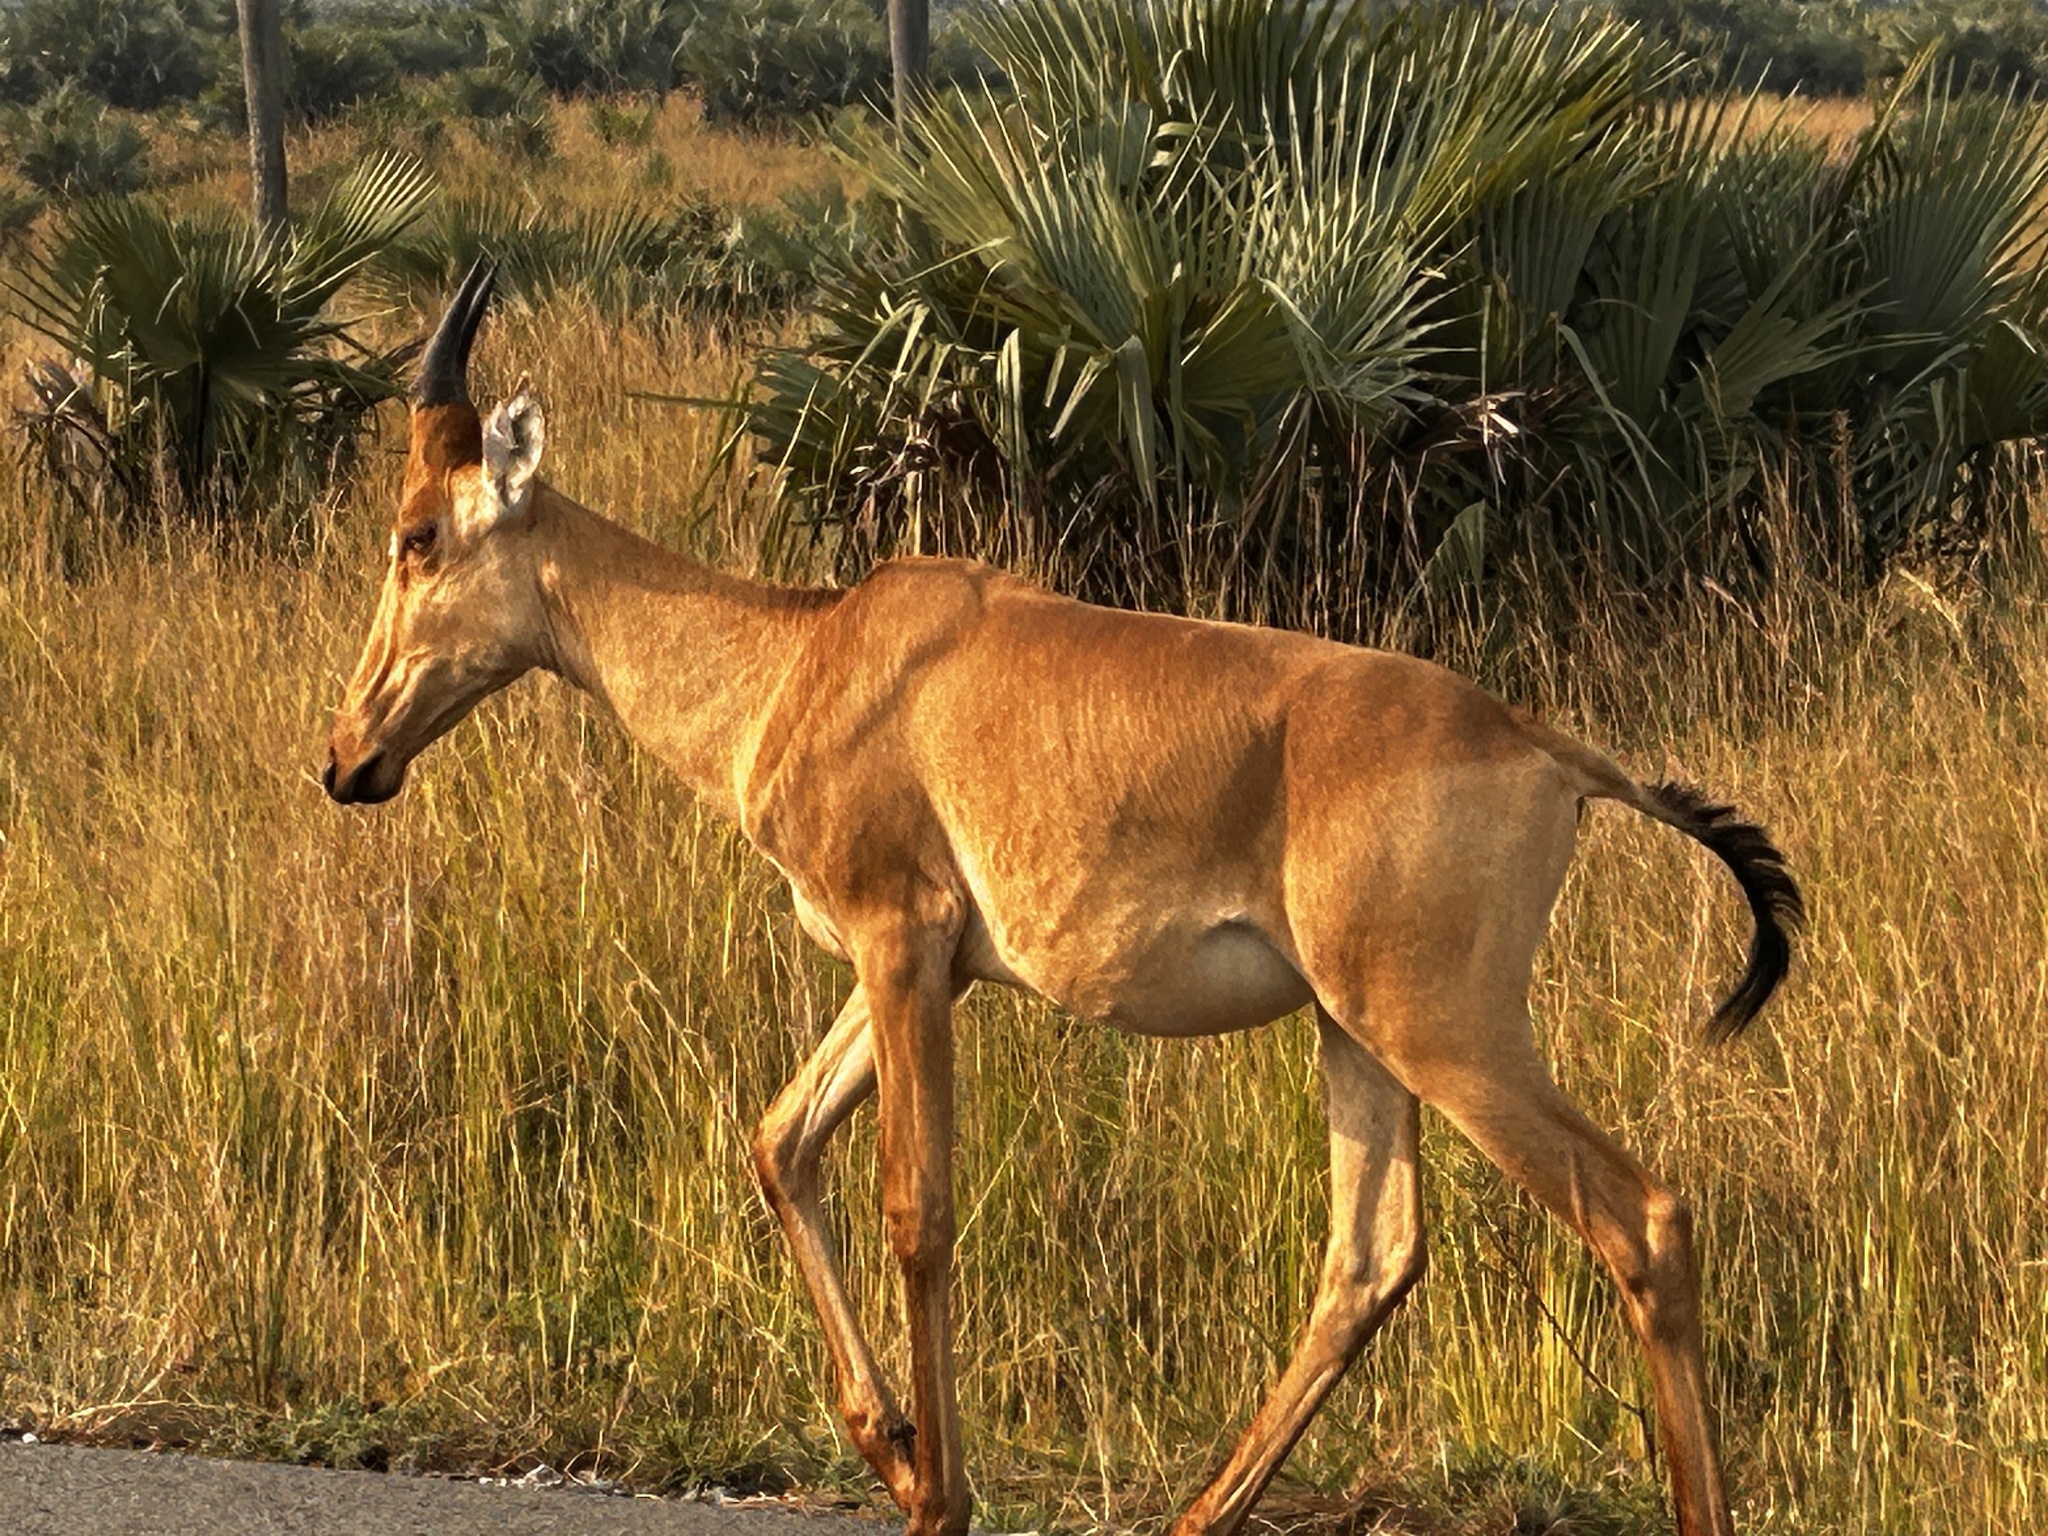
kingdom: Animalia
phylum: Chordata
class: Mammalia
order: Artiodactyla
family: Bovidae
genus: Alcelaphus
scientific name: Alcelaphus buselaphus
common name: Hartebeest
